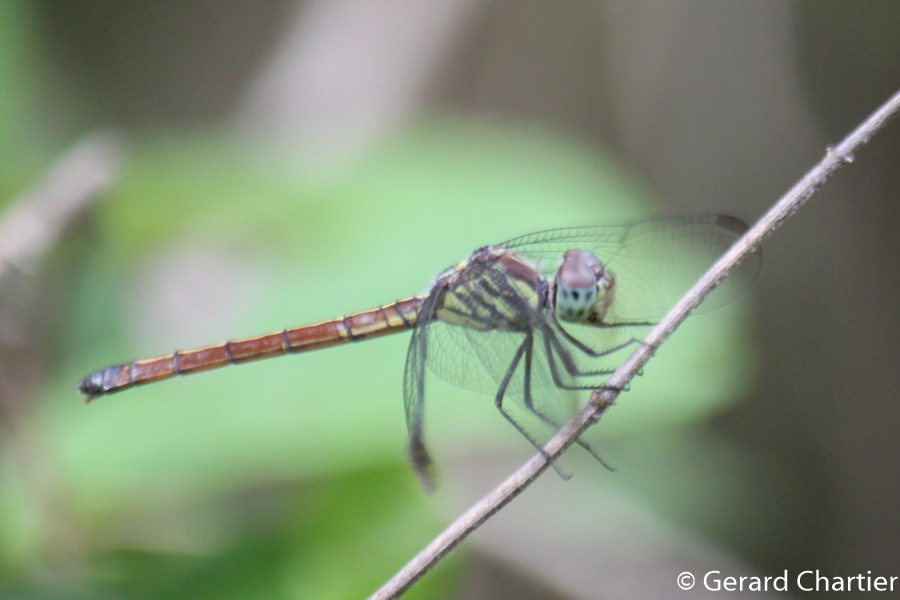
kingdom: Animalia
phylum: Arthropoda
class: Insecta
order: Odonata
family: Libellulidae
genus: Lathrecista
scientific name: Lathrecista asiatica
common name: Scarlet grenadier
